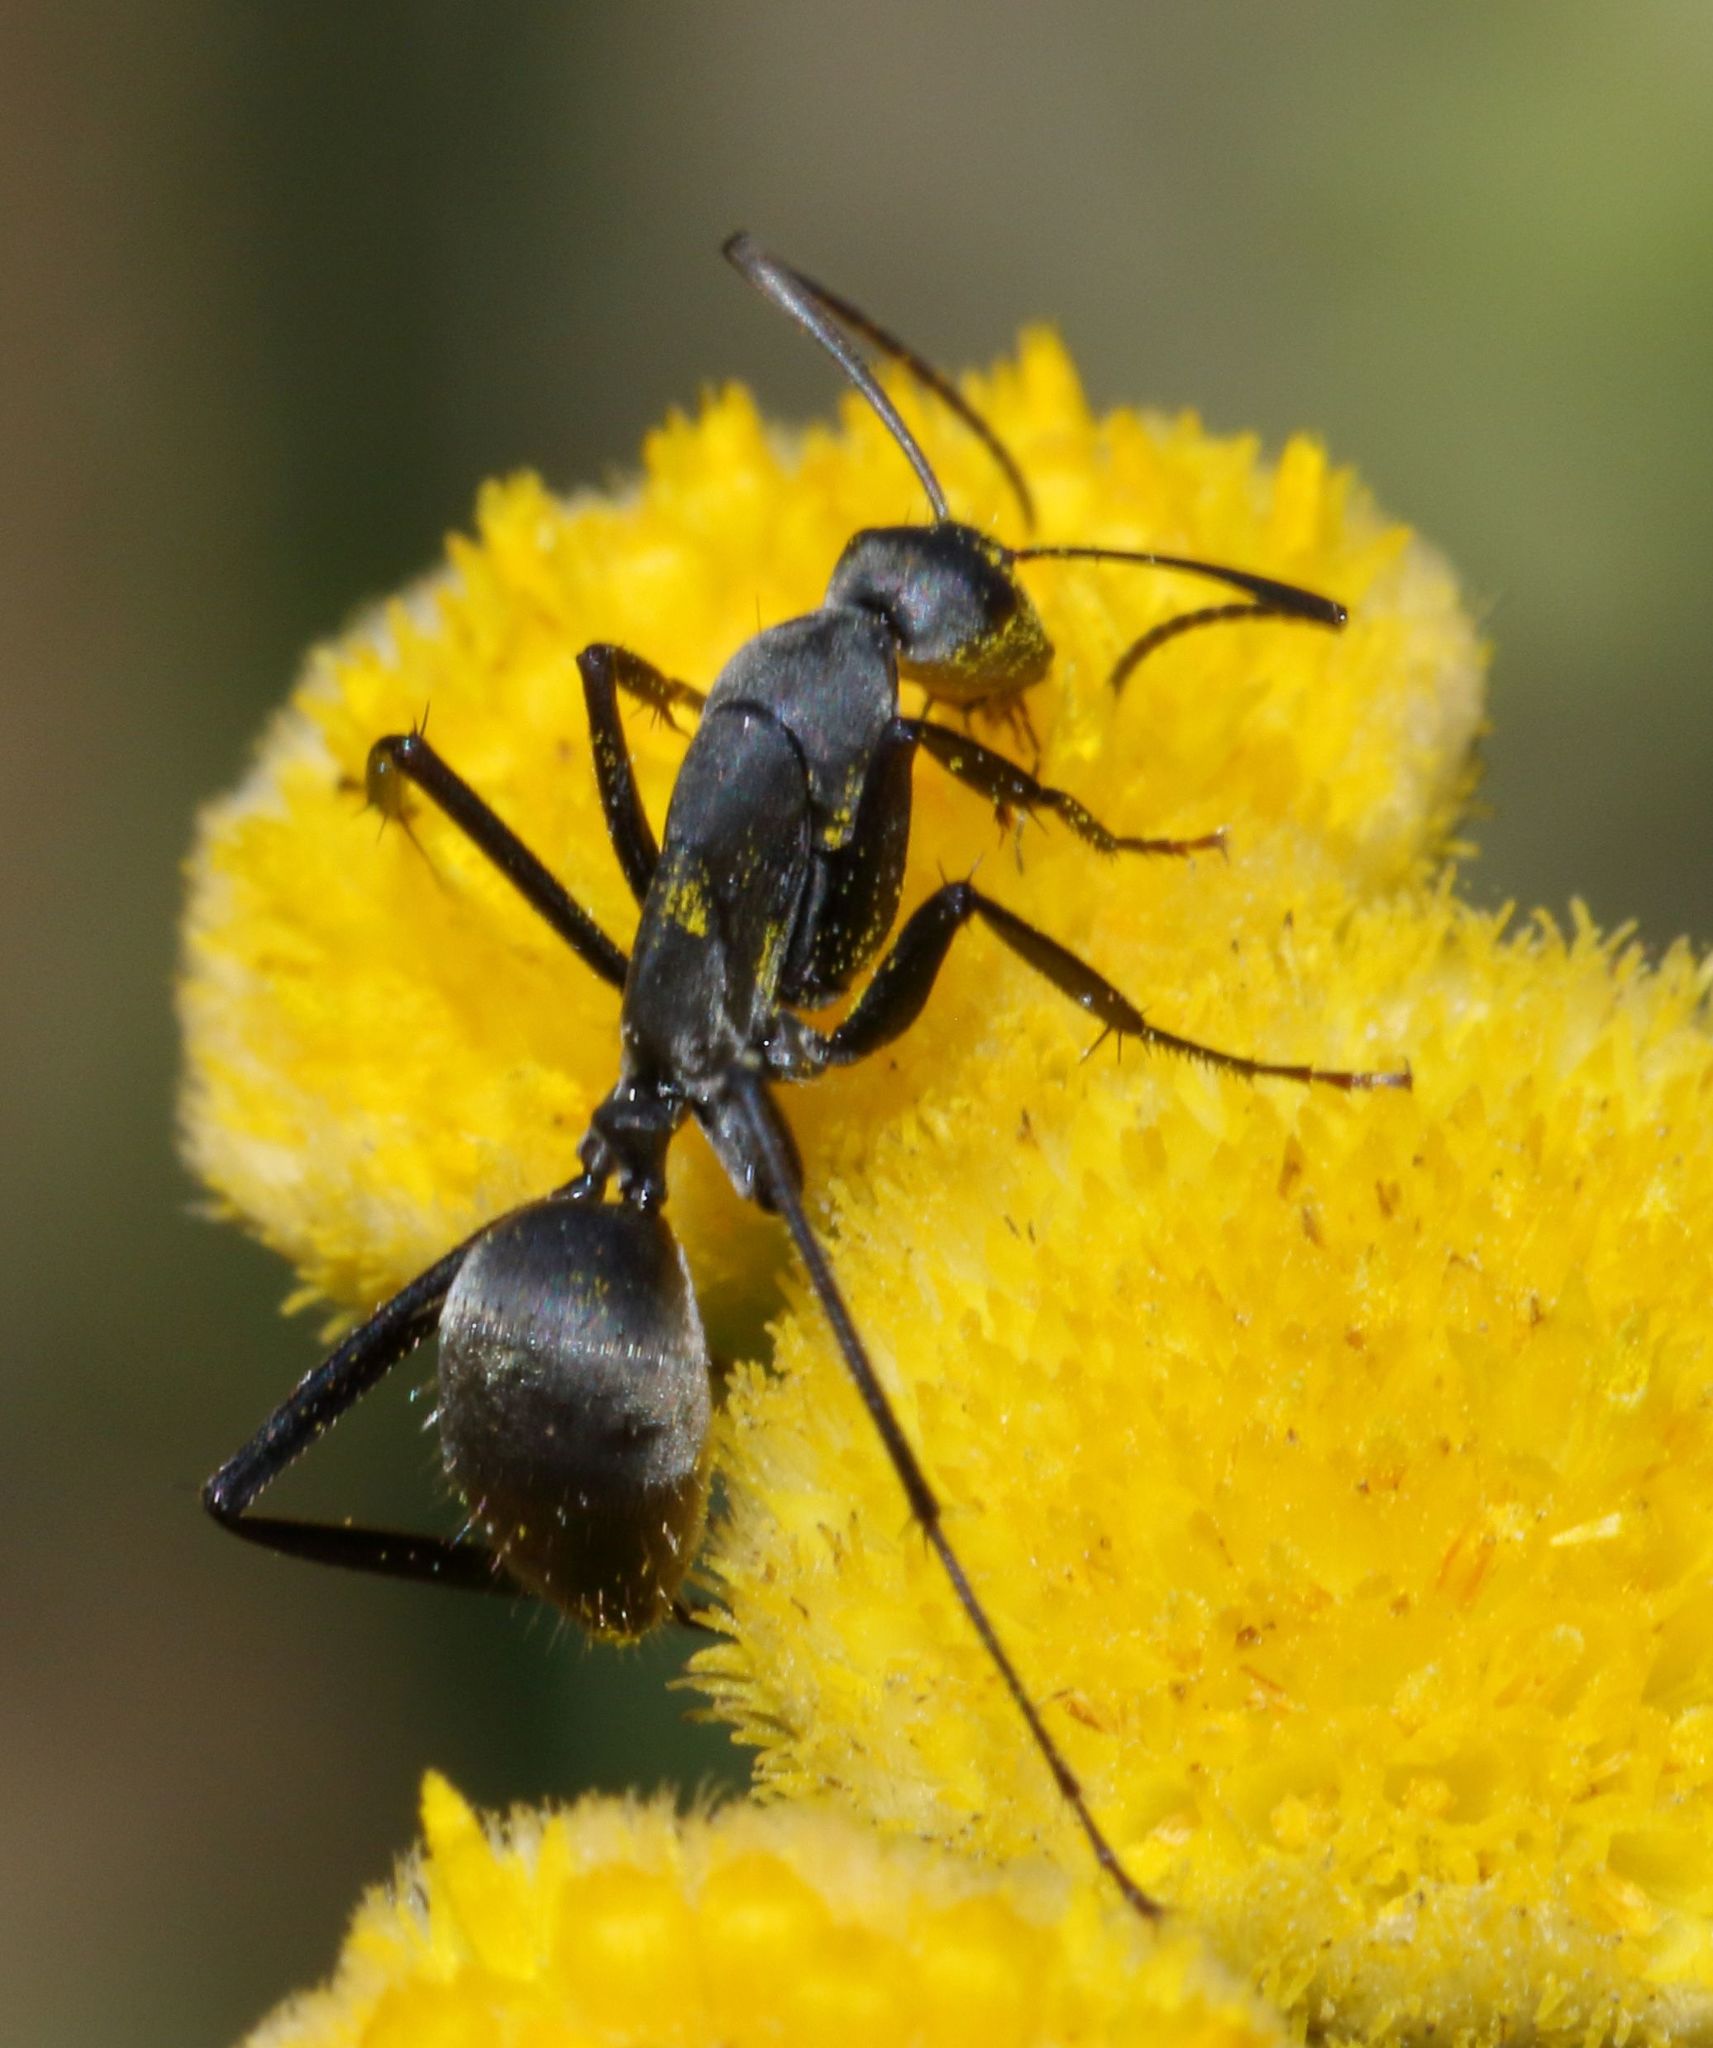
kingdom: Animalia
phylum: Arthropoda
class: Insecta
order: Hymenoptera
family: Formicidae
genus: Camponotus
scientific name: Camponotus petersii
